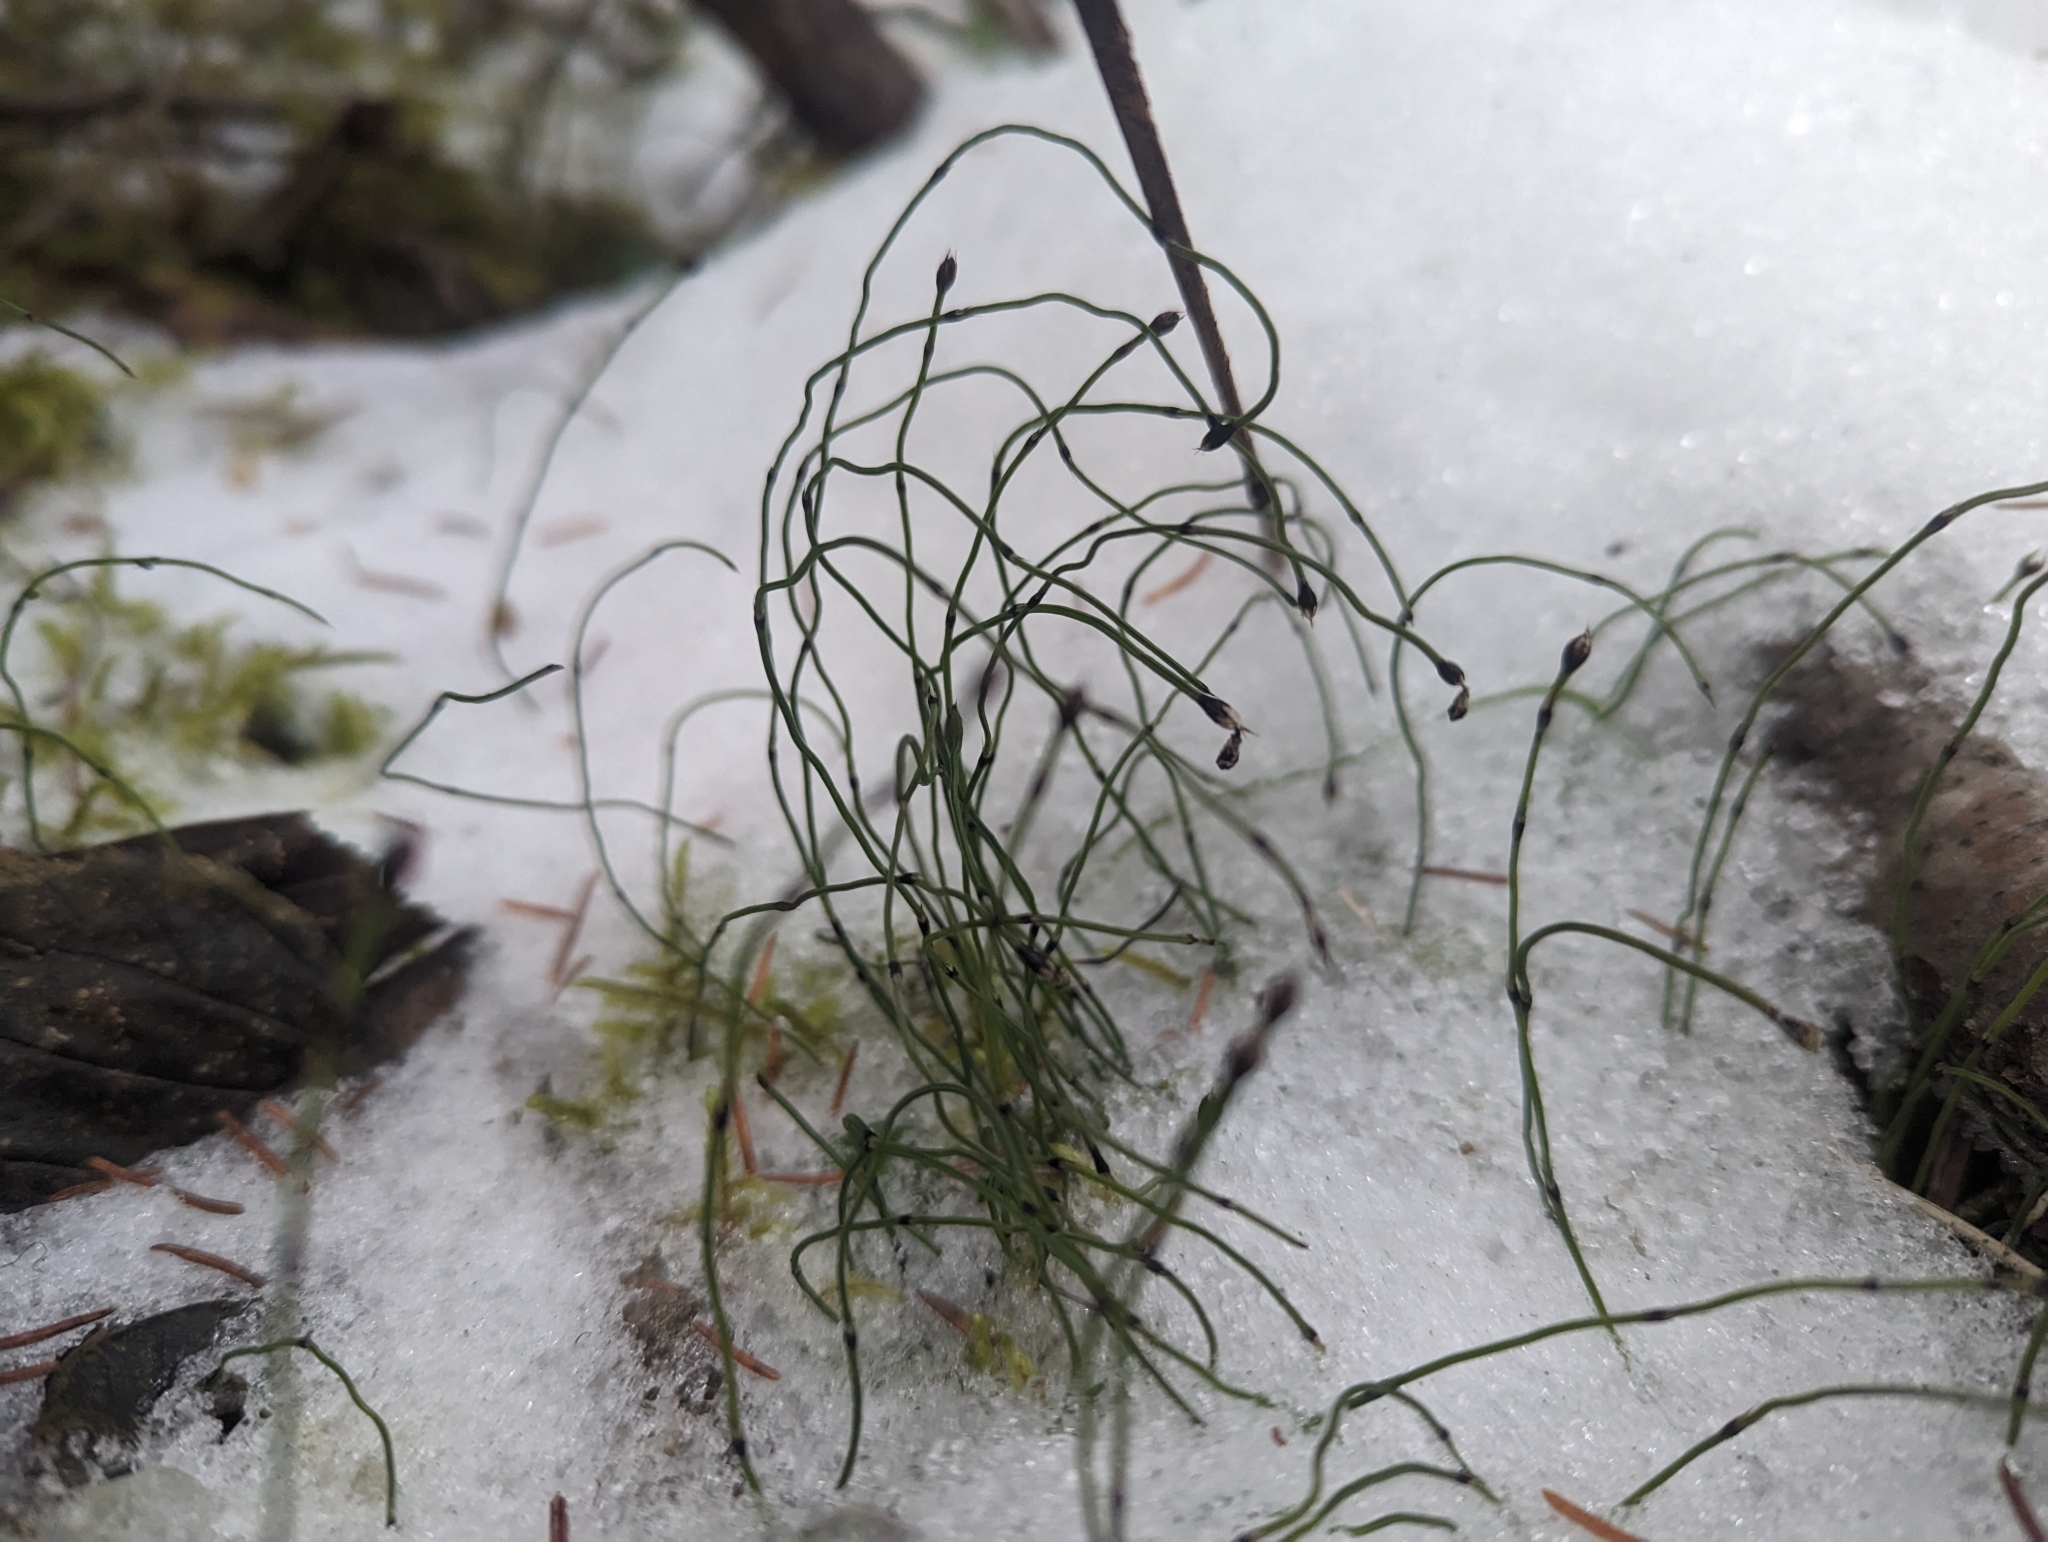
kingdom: Plantae
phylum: Tracheophyta
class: Polypodiopsida
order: Equisetales
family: Equisetaceae
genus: Equisetum
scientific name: Equisetum scirpoides
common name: Delicate horsetail
